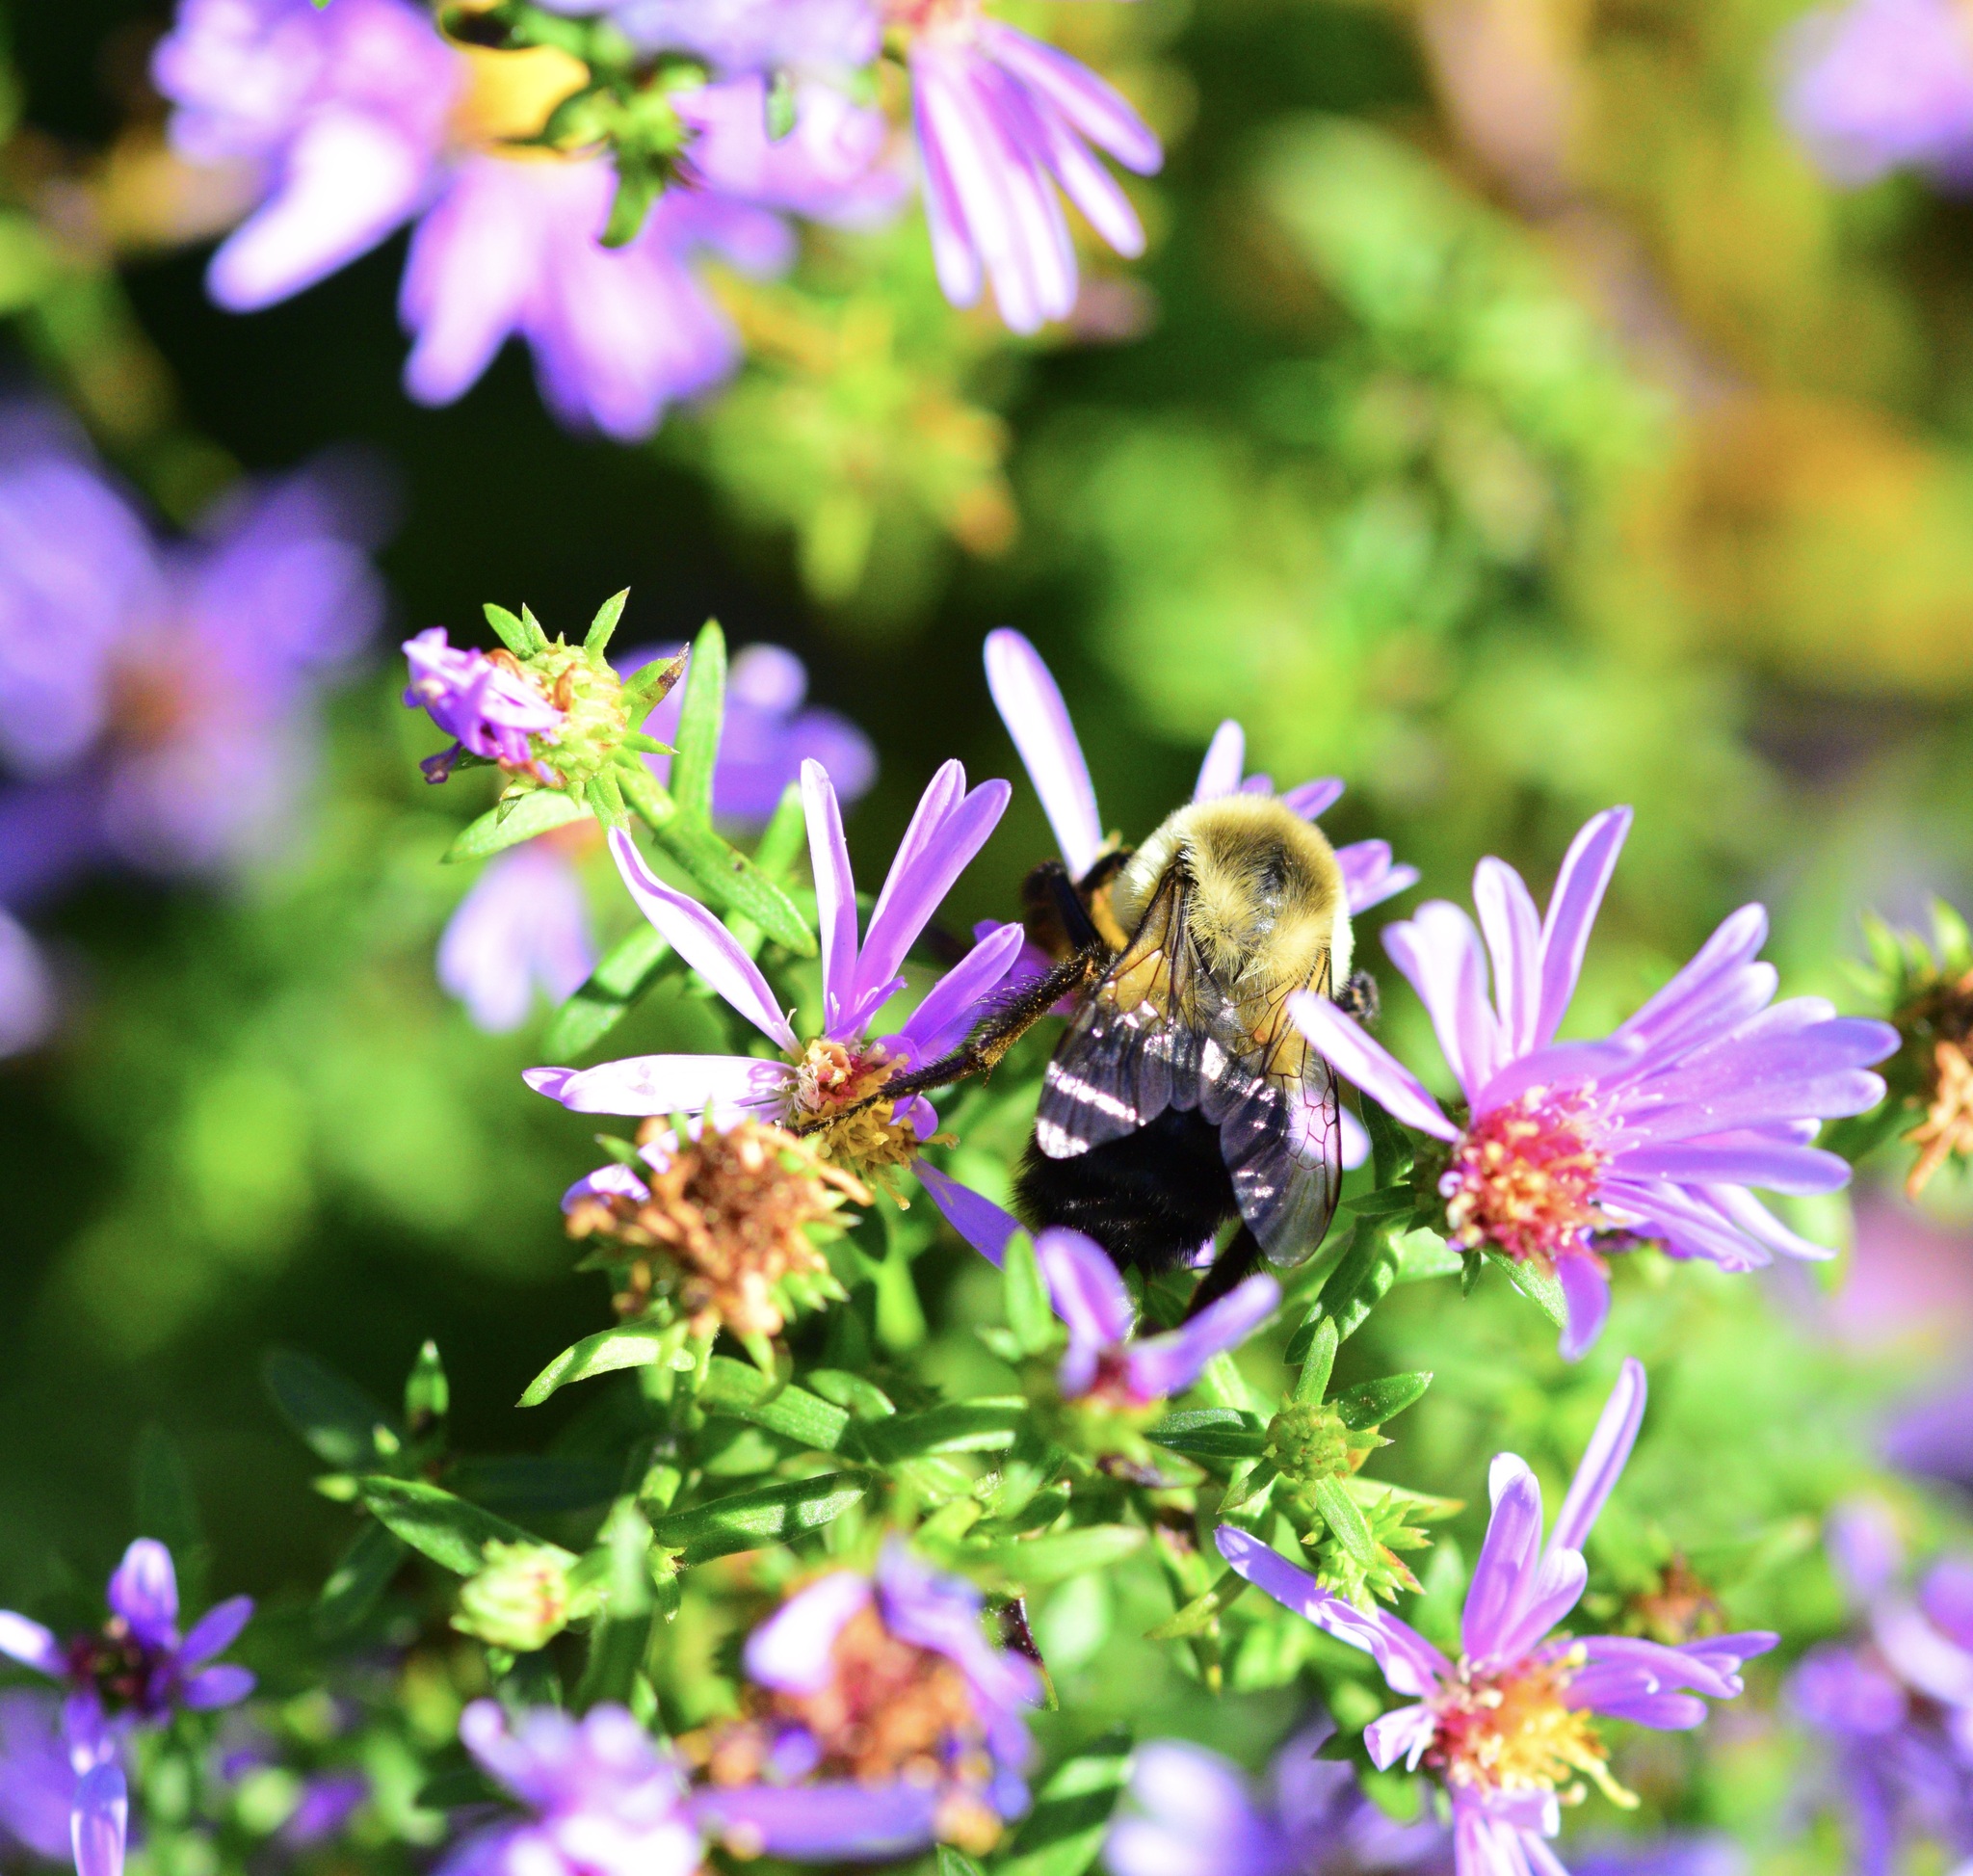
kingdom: Animalia
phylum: Arthropoda
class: Insecta
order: Hymenoptera
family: Apidae
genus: Bombus
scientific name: Bombus impatiens
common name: Common eastern bumble bee
